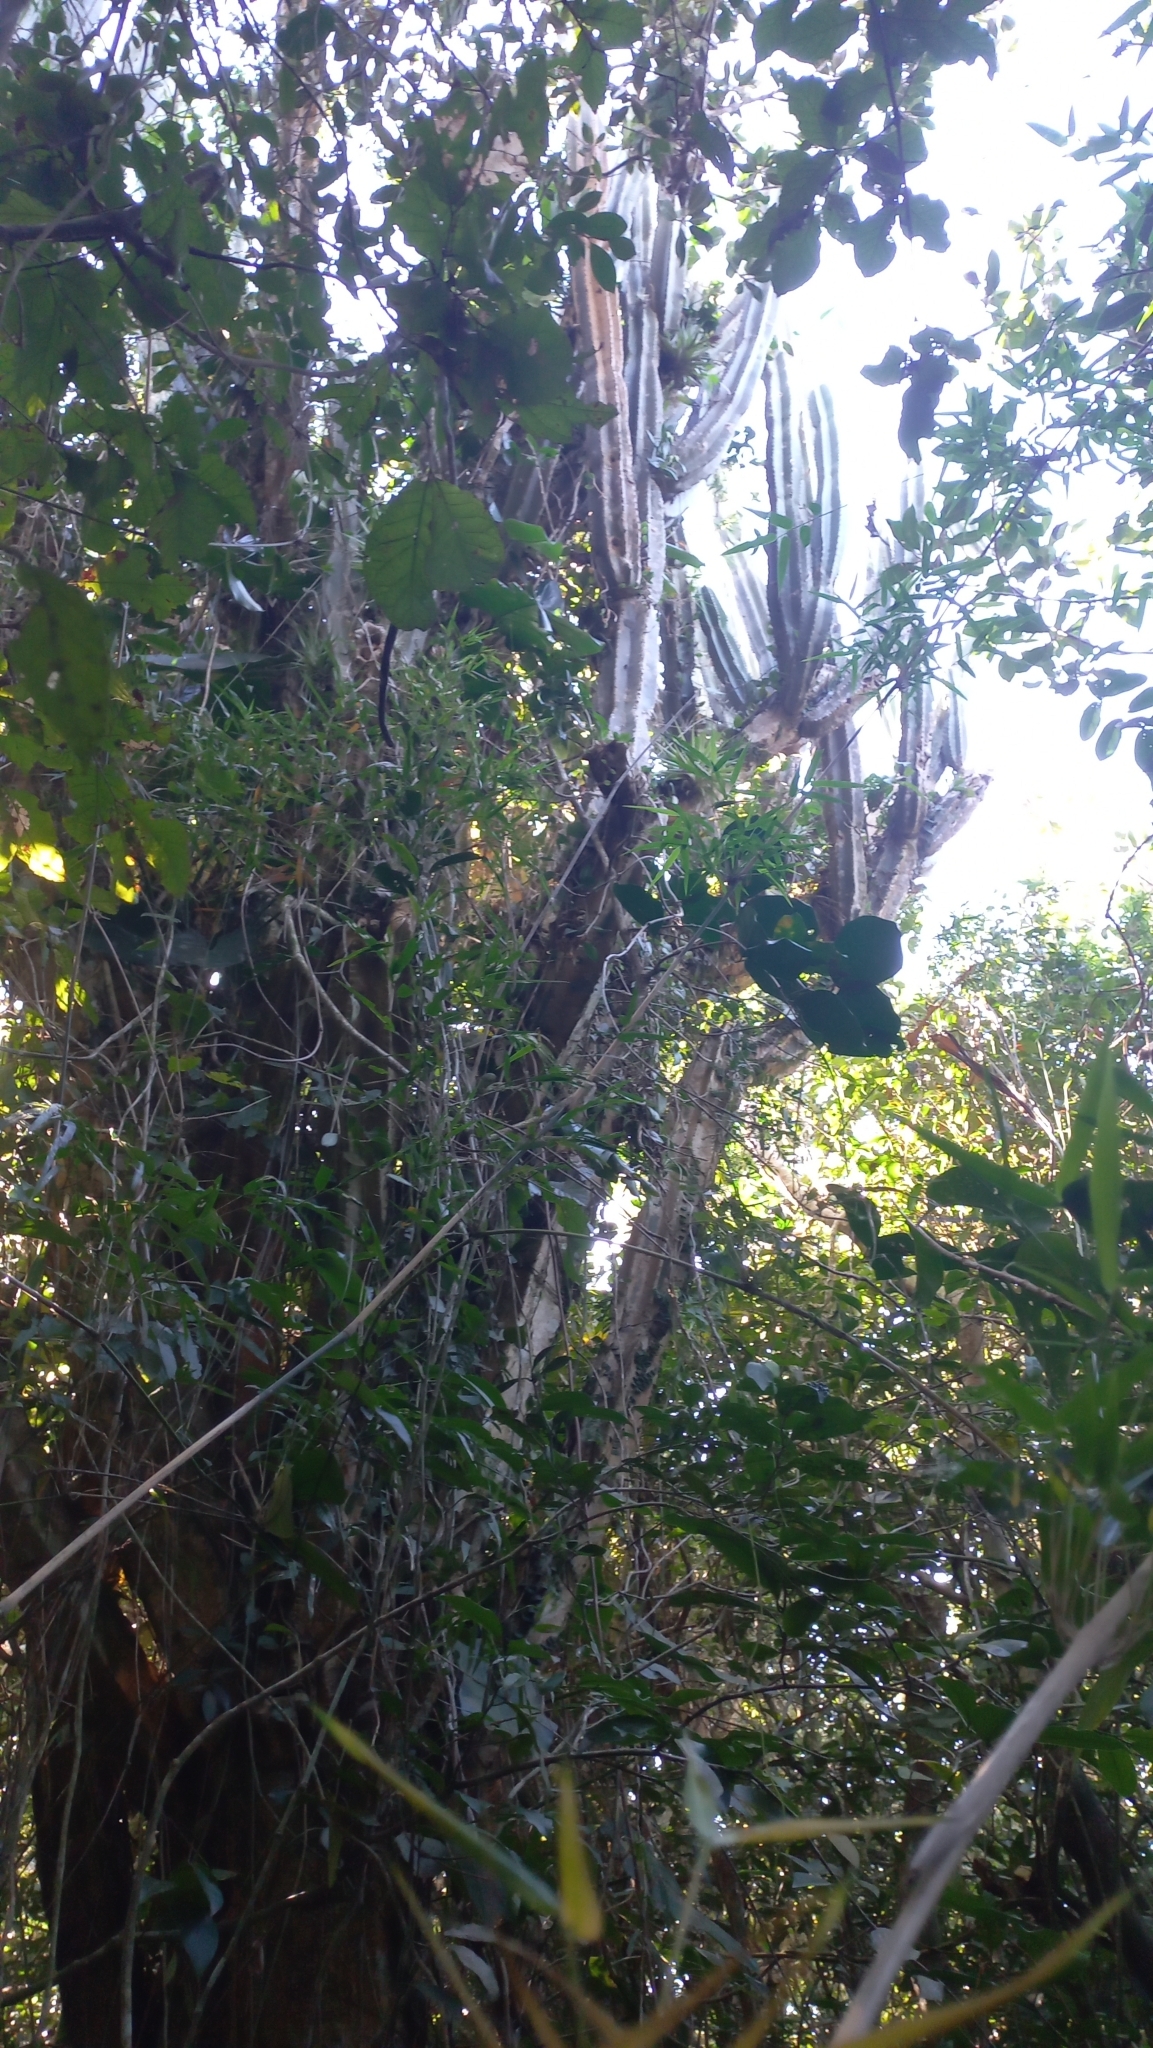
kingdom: Plantae
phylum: Tracheophyta
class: Magnoliopsida
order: Caryophyllales
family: Cactaceae
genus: Cereus
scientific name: Cereus hildmannianus
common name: Hedge cactus
